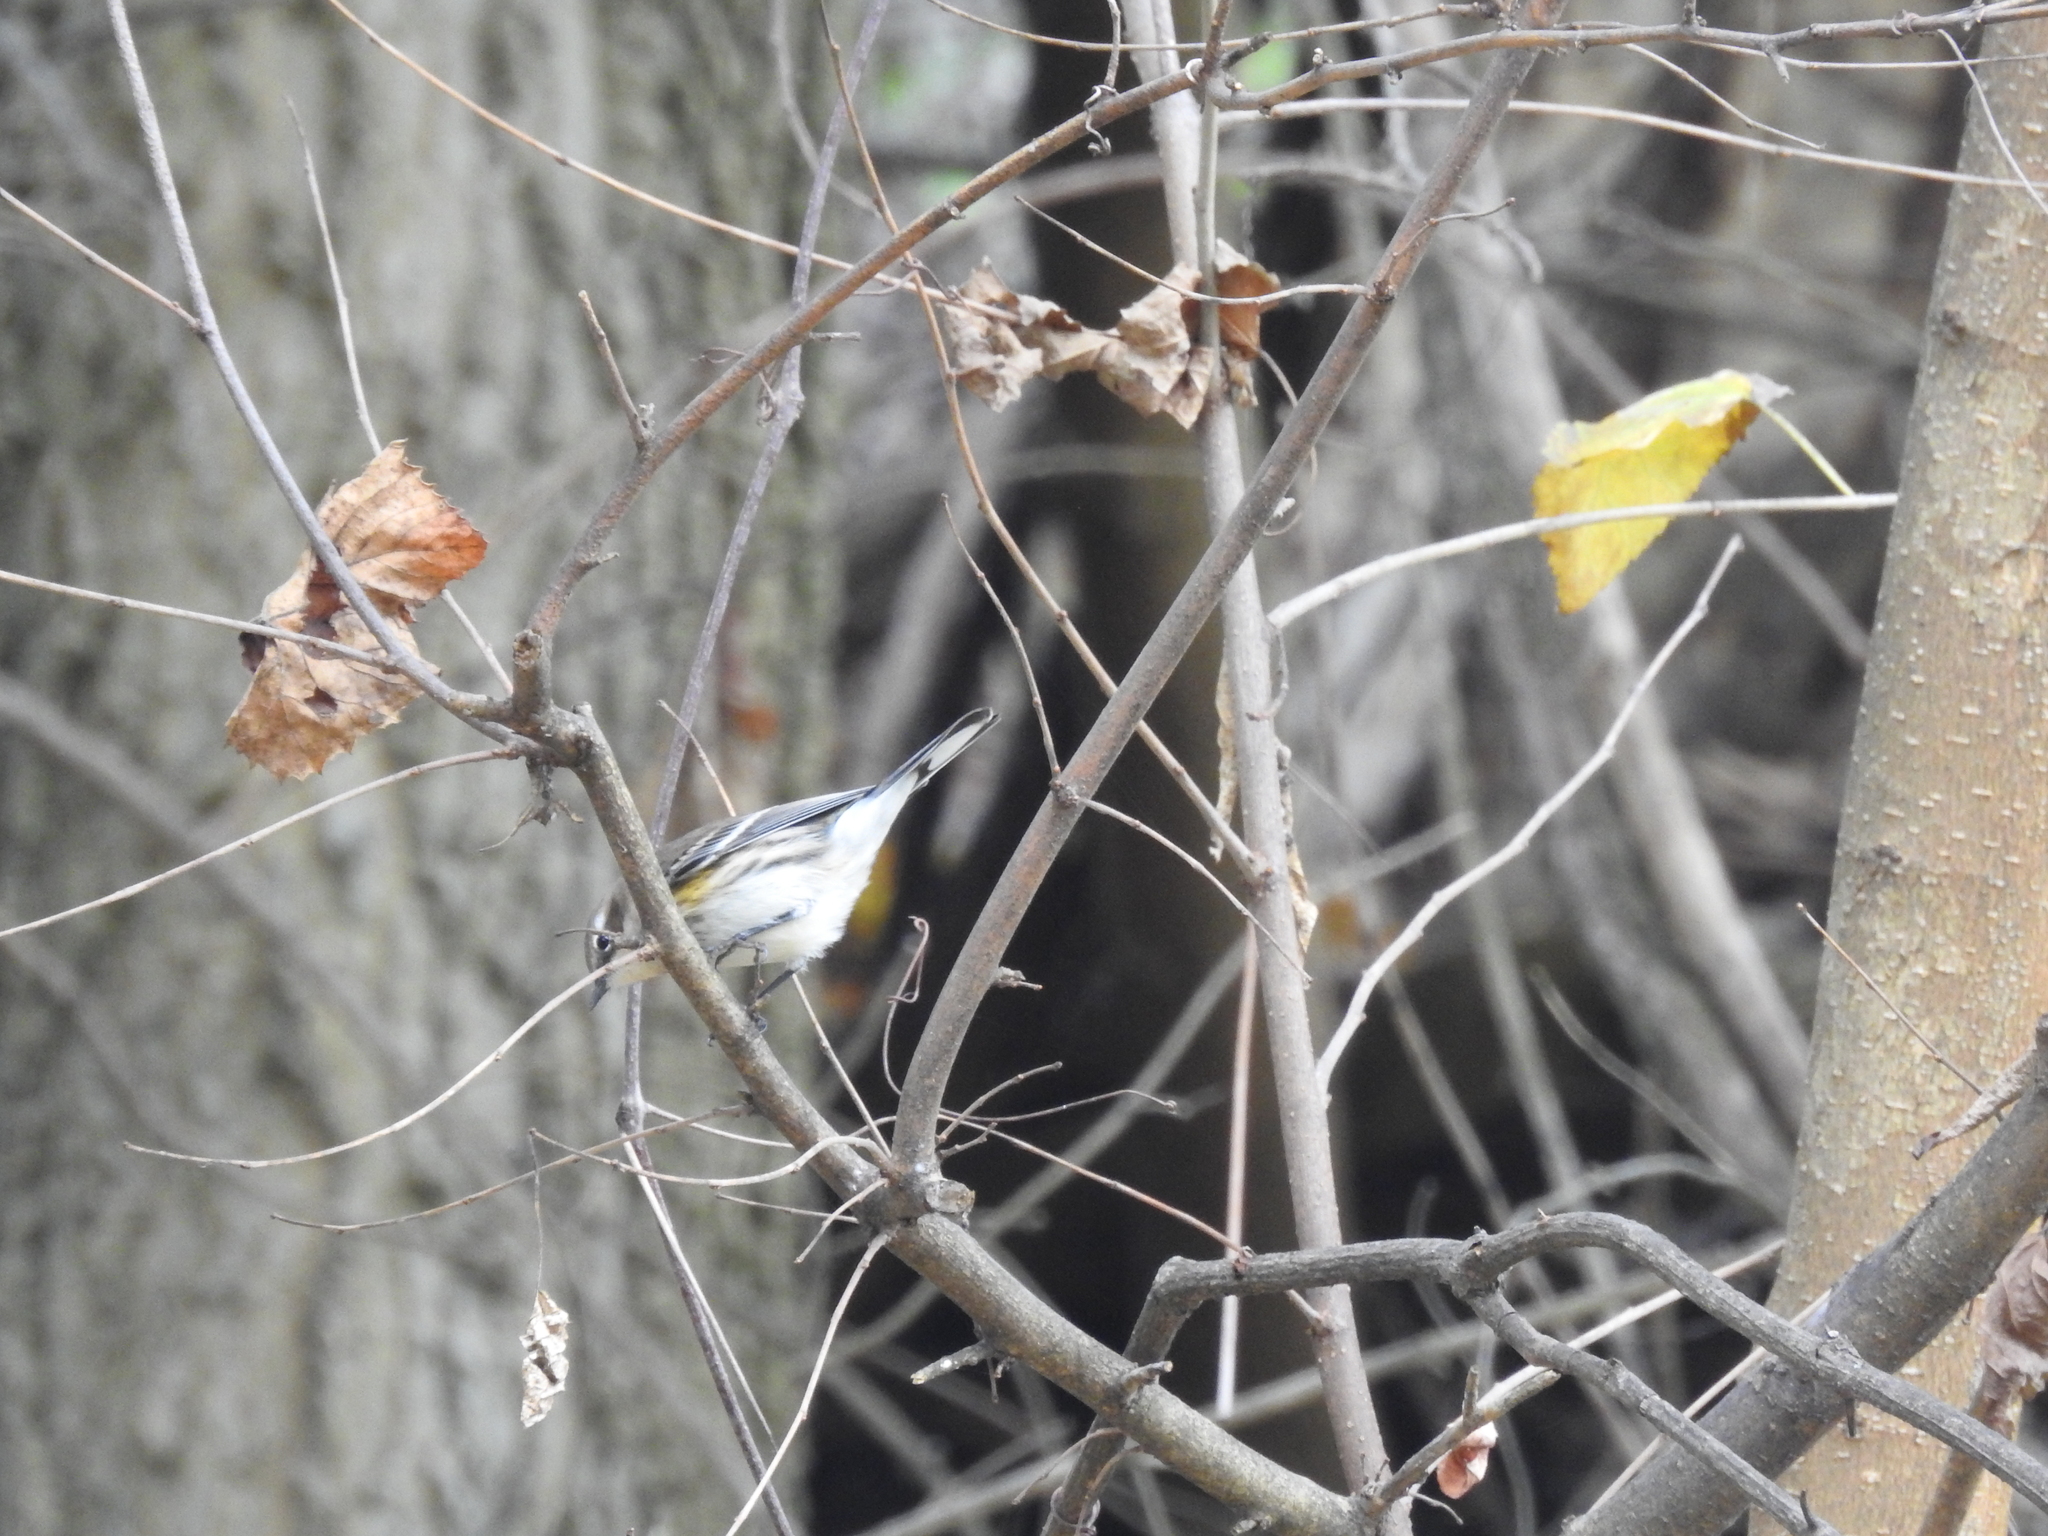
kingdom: Animalia
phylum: Chordata
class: Aves
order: Passeriformes
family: Parulidae
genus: Setophaga
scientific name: Setophaga coronata
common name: Myrtle warbler
